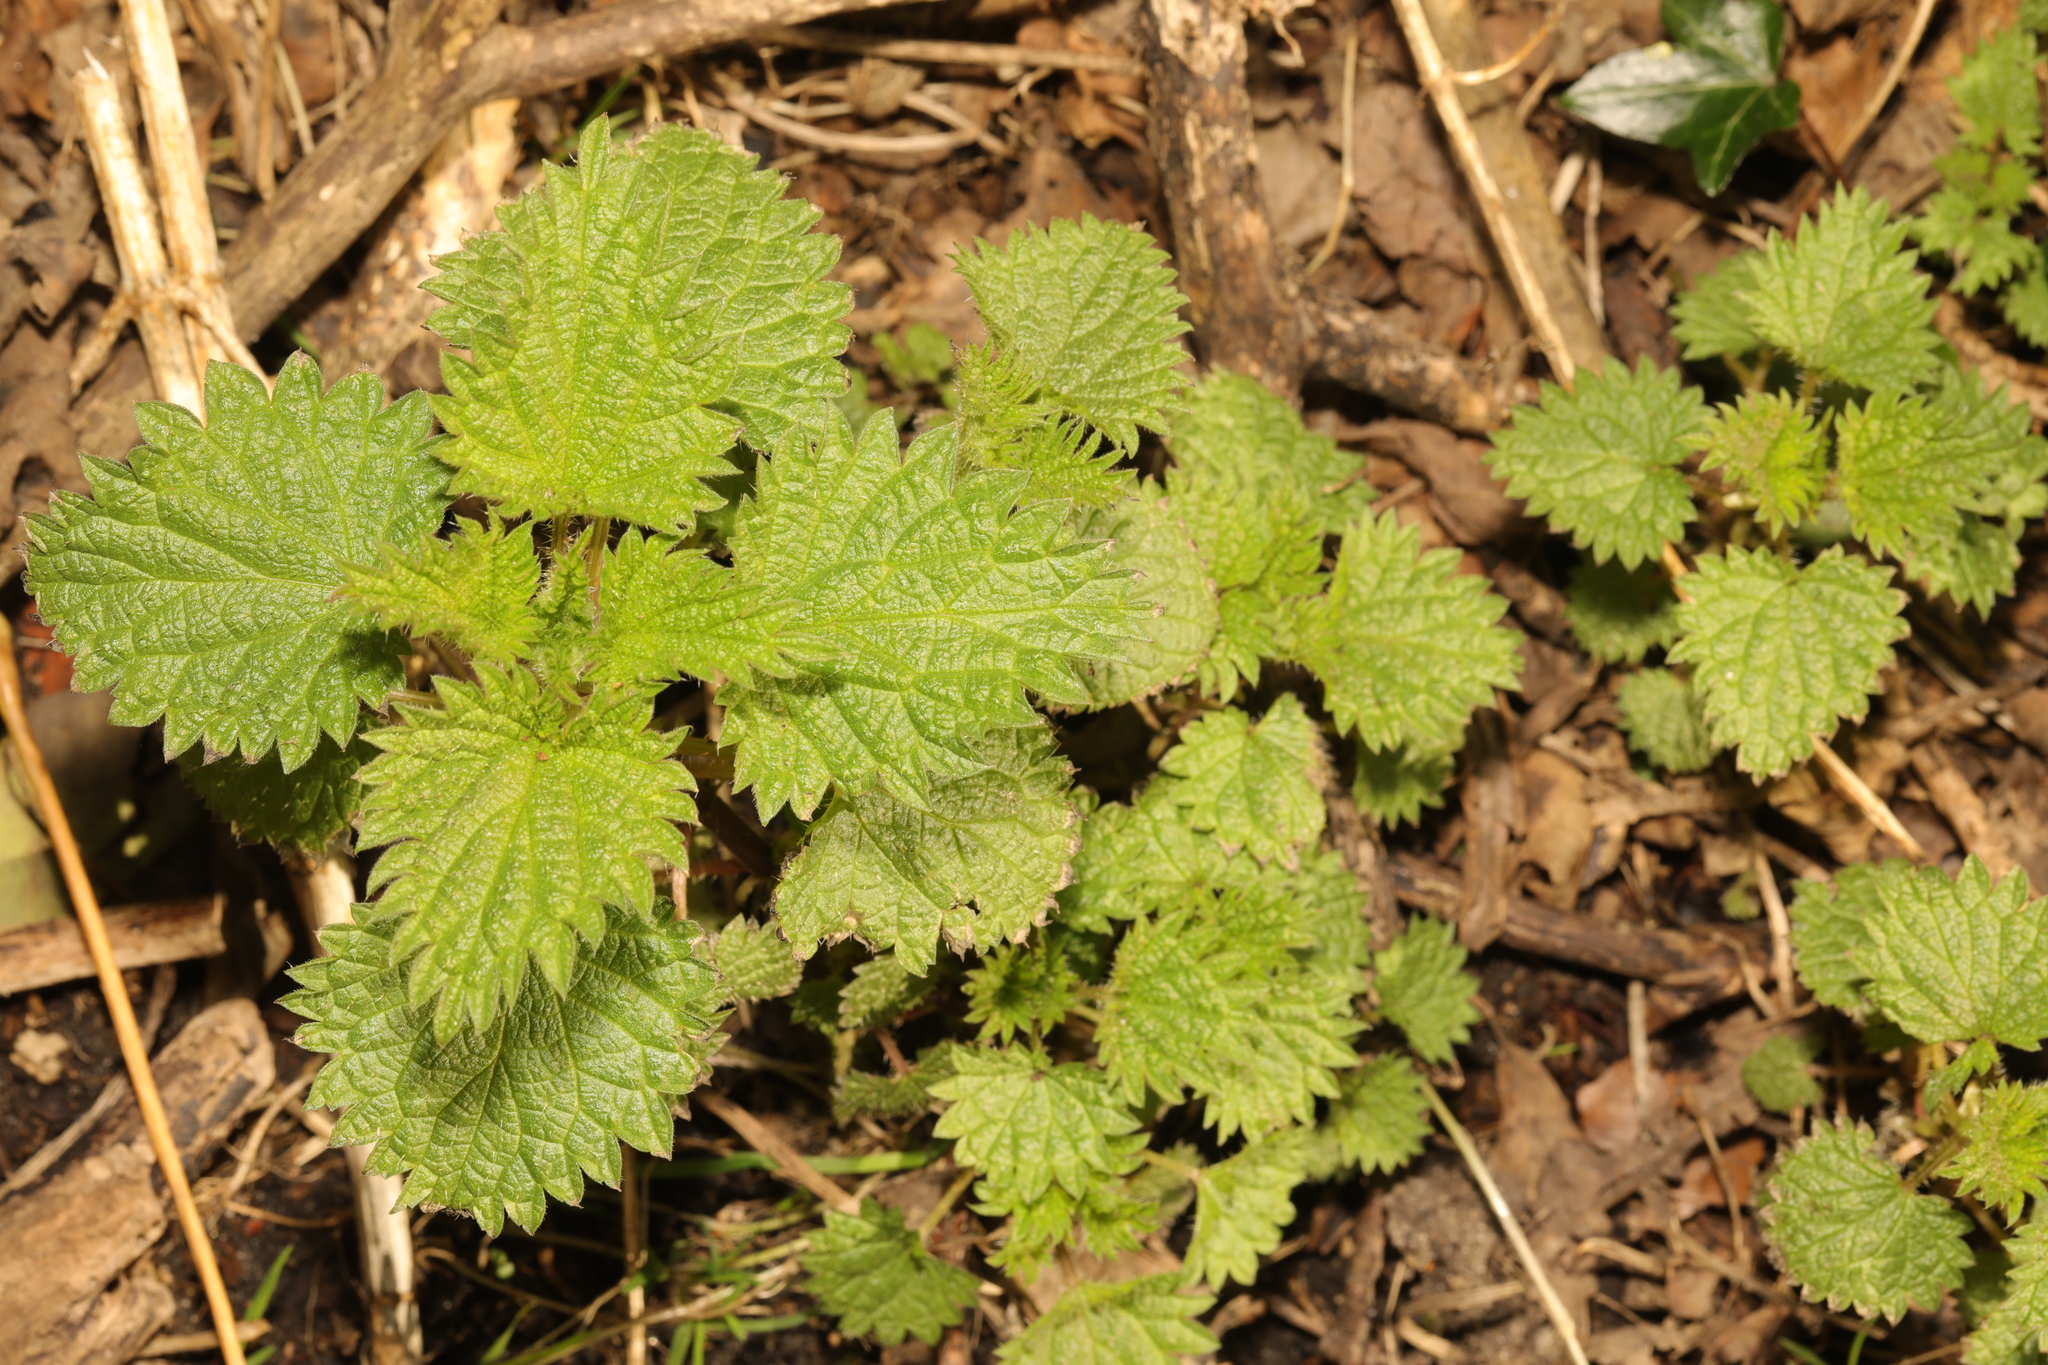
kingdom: Plantae
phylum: Tracheophyta
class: Magnoliopsida
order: Rosales
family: Urticaceae
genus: Urtica
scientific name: Urtica dioica
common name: Common nettle
